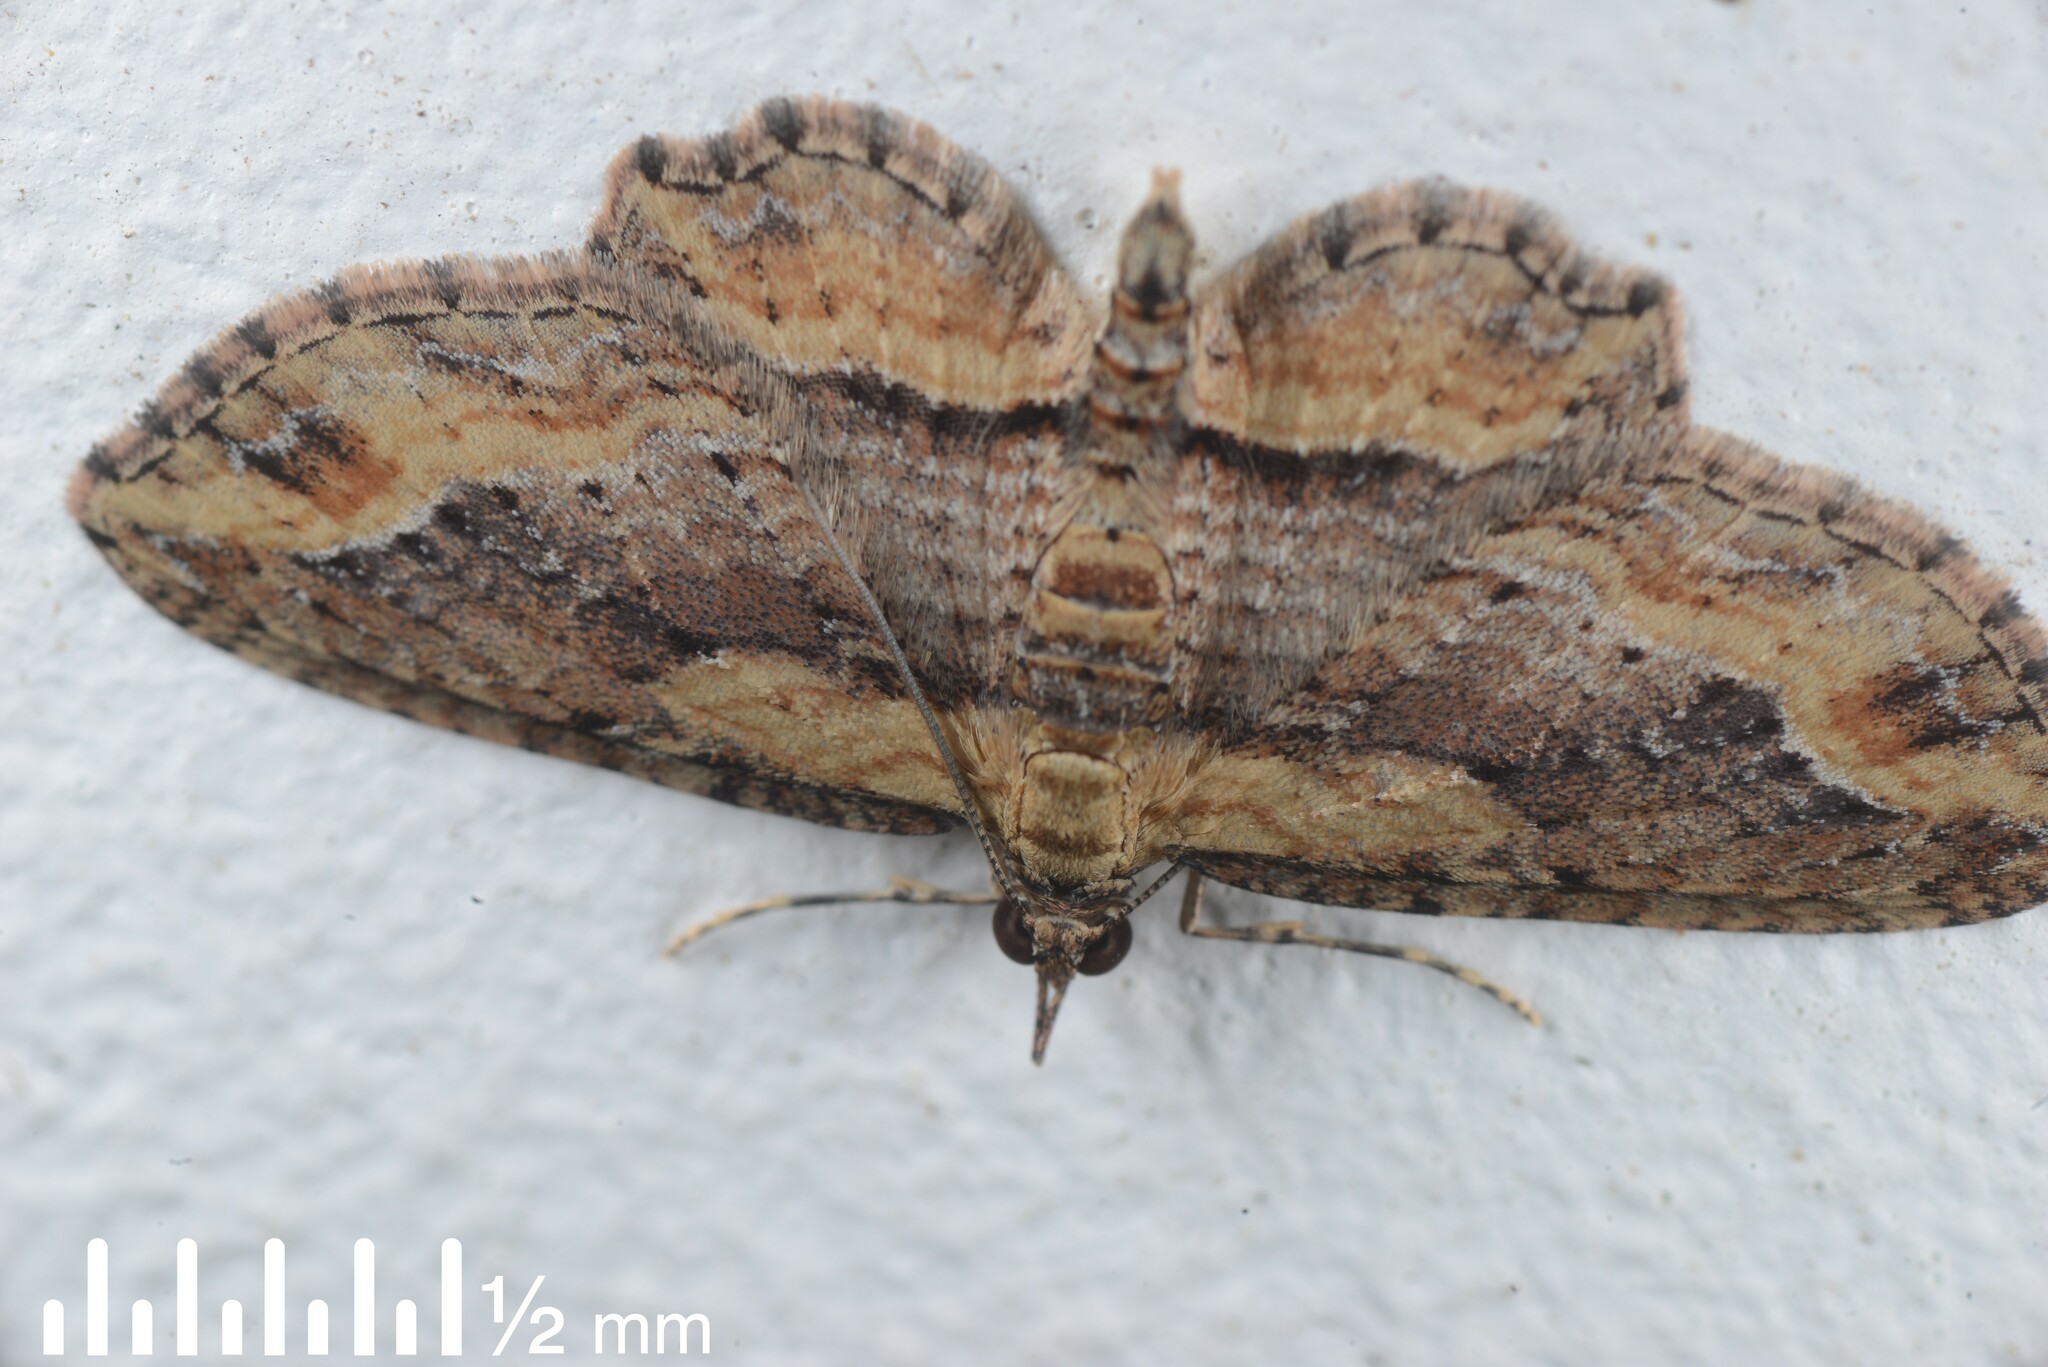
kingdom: Animalia
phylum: Arthropoda
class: Insecta
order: Lepidoptera
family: Geometridae
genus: Chloroclystis
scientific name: Chloroclystis filata
